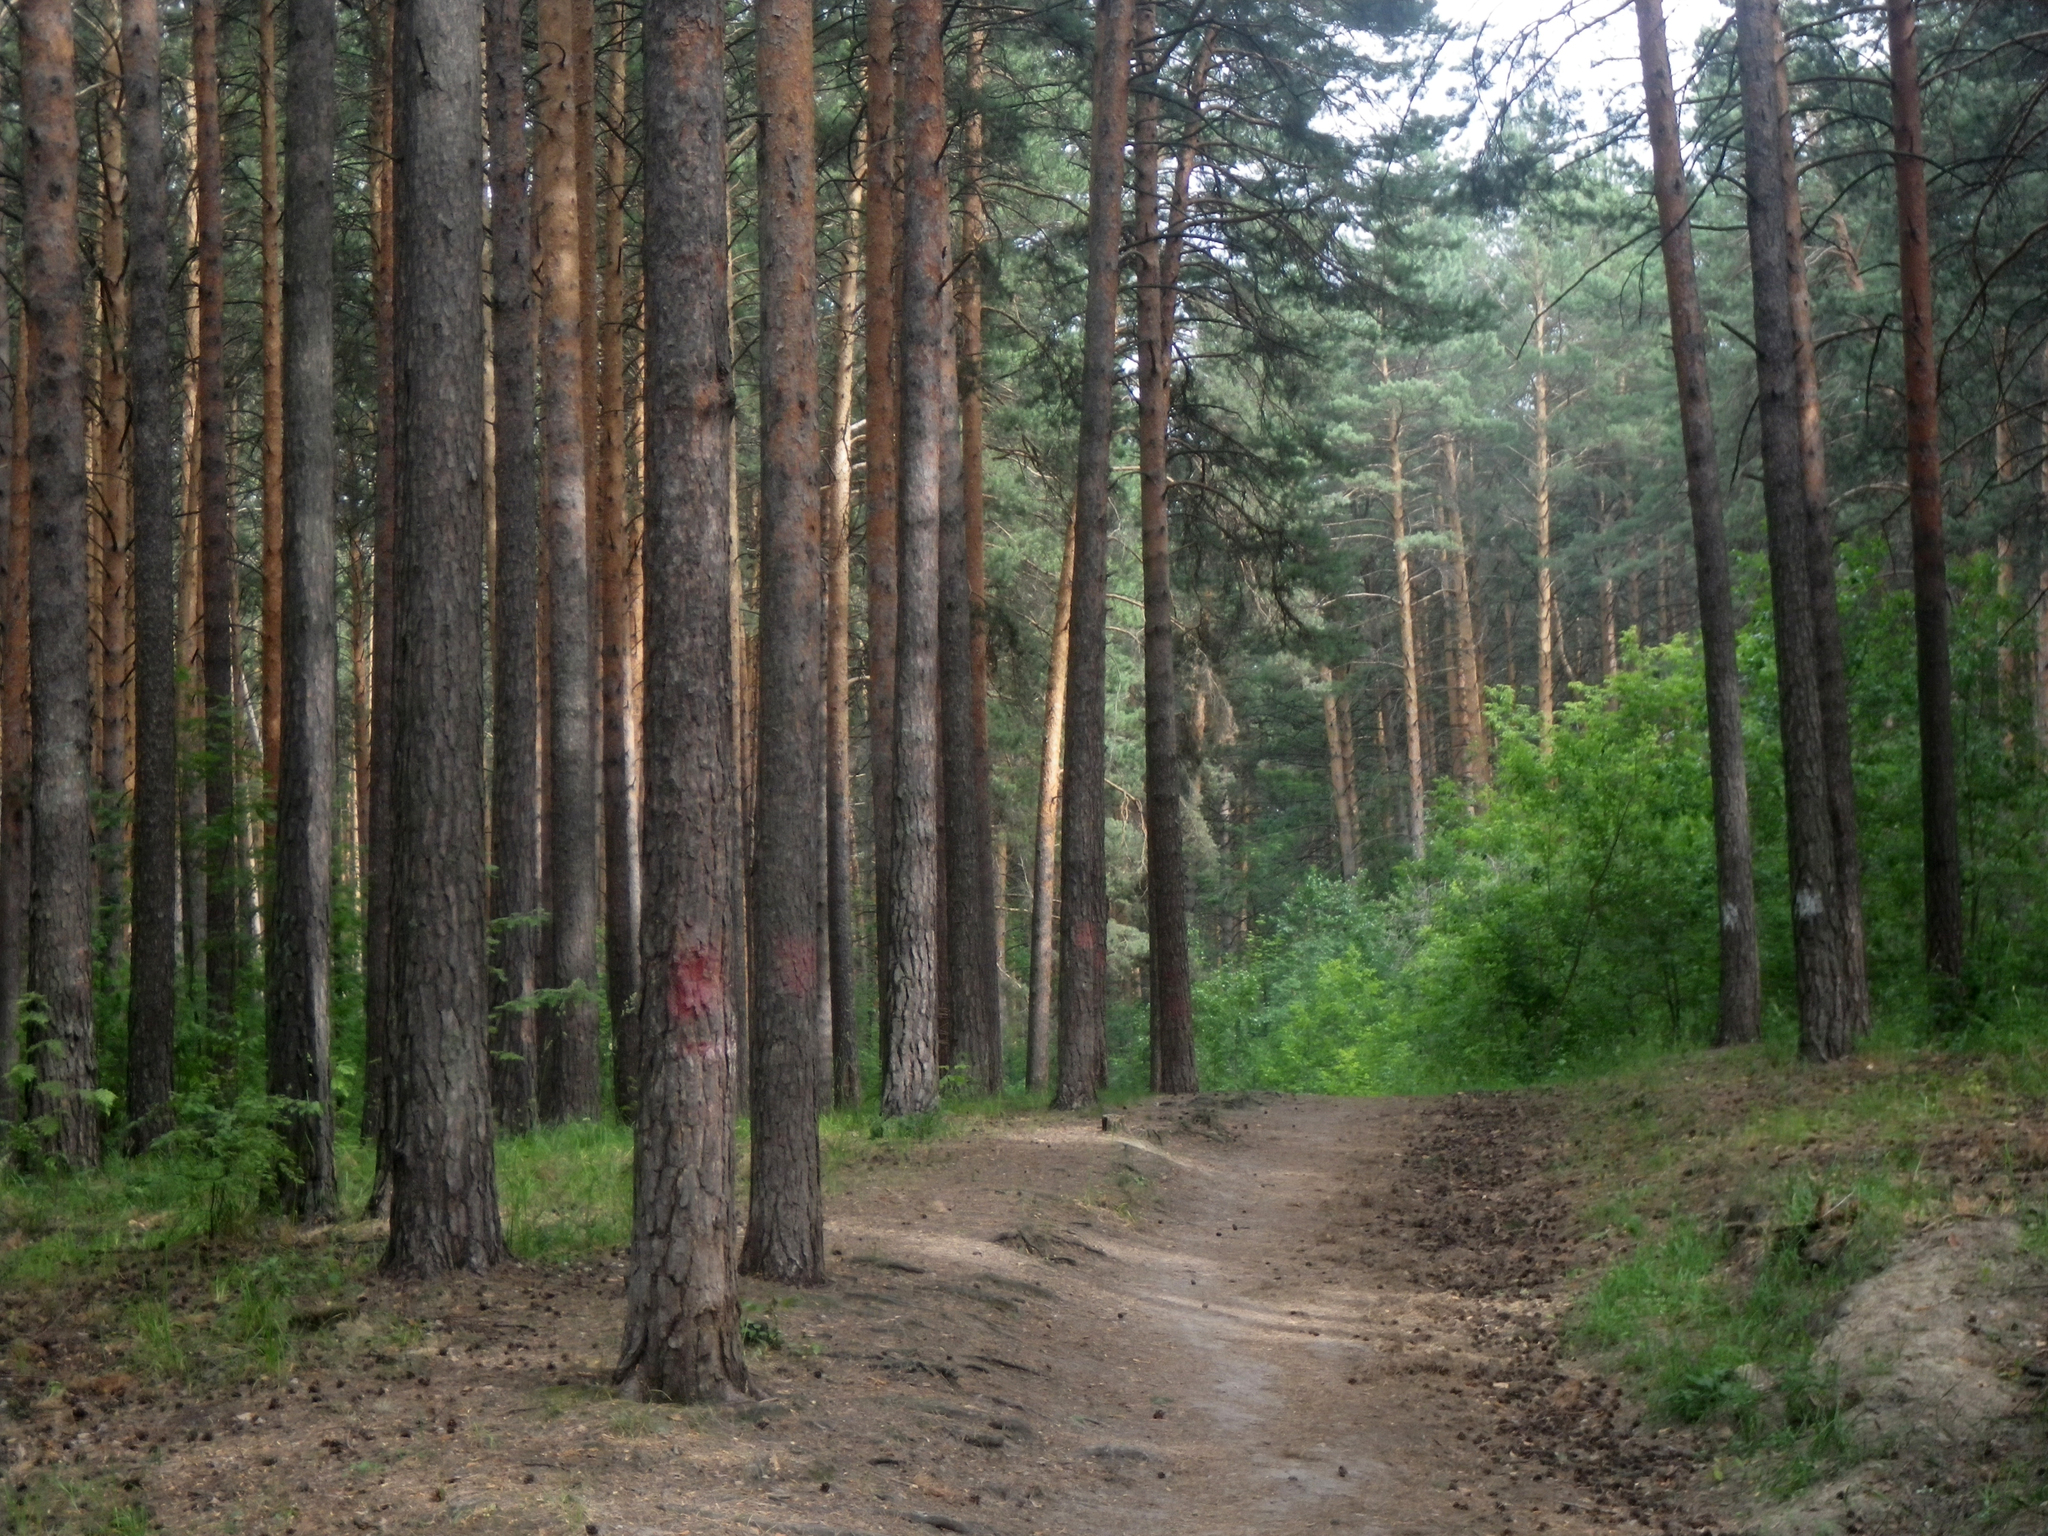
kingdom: Plantae
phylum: Tracheophyta
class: Pinopsida
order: Pinales
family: Pinaceae
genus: Pinus
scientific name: Pinus sylvestris
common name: Scots pine
